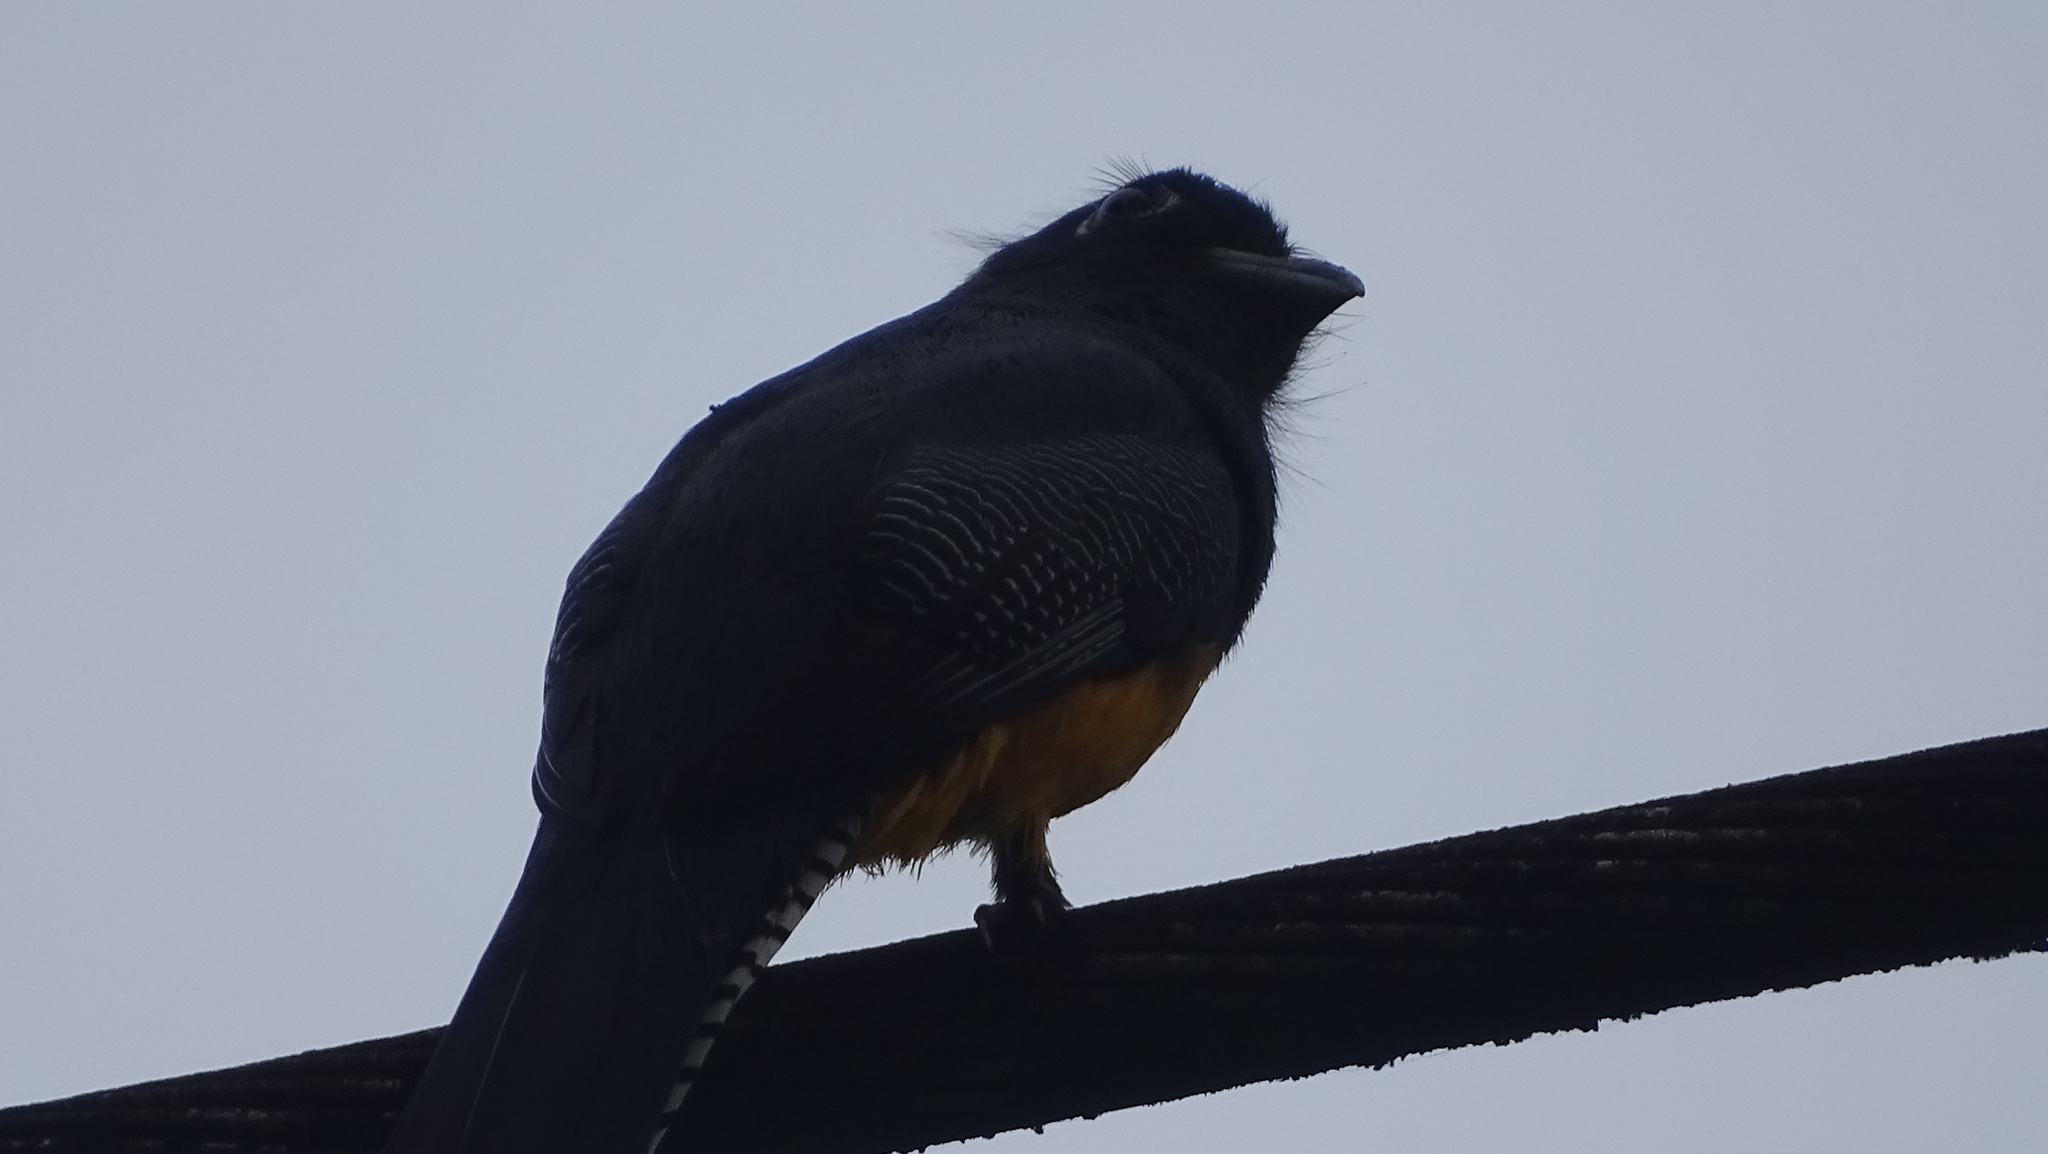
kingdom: Animalia
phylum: Chordata
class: Aves
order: Trogoniformes
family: Trogonidae
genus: Trogon
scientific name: Trogon caligatus
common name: Gartered trogon
